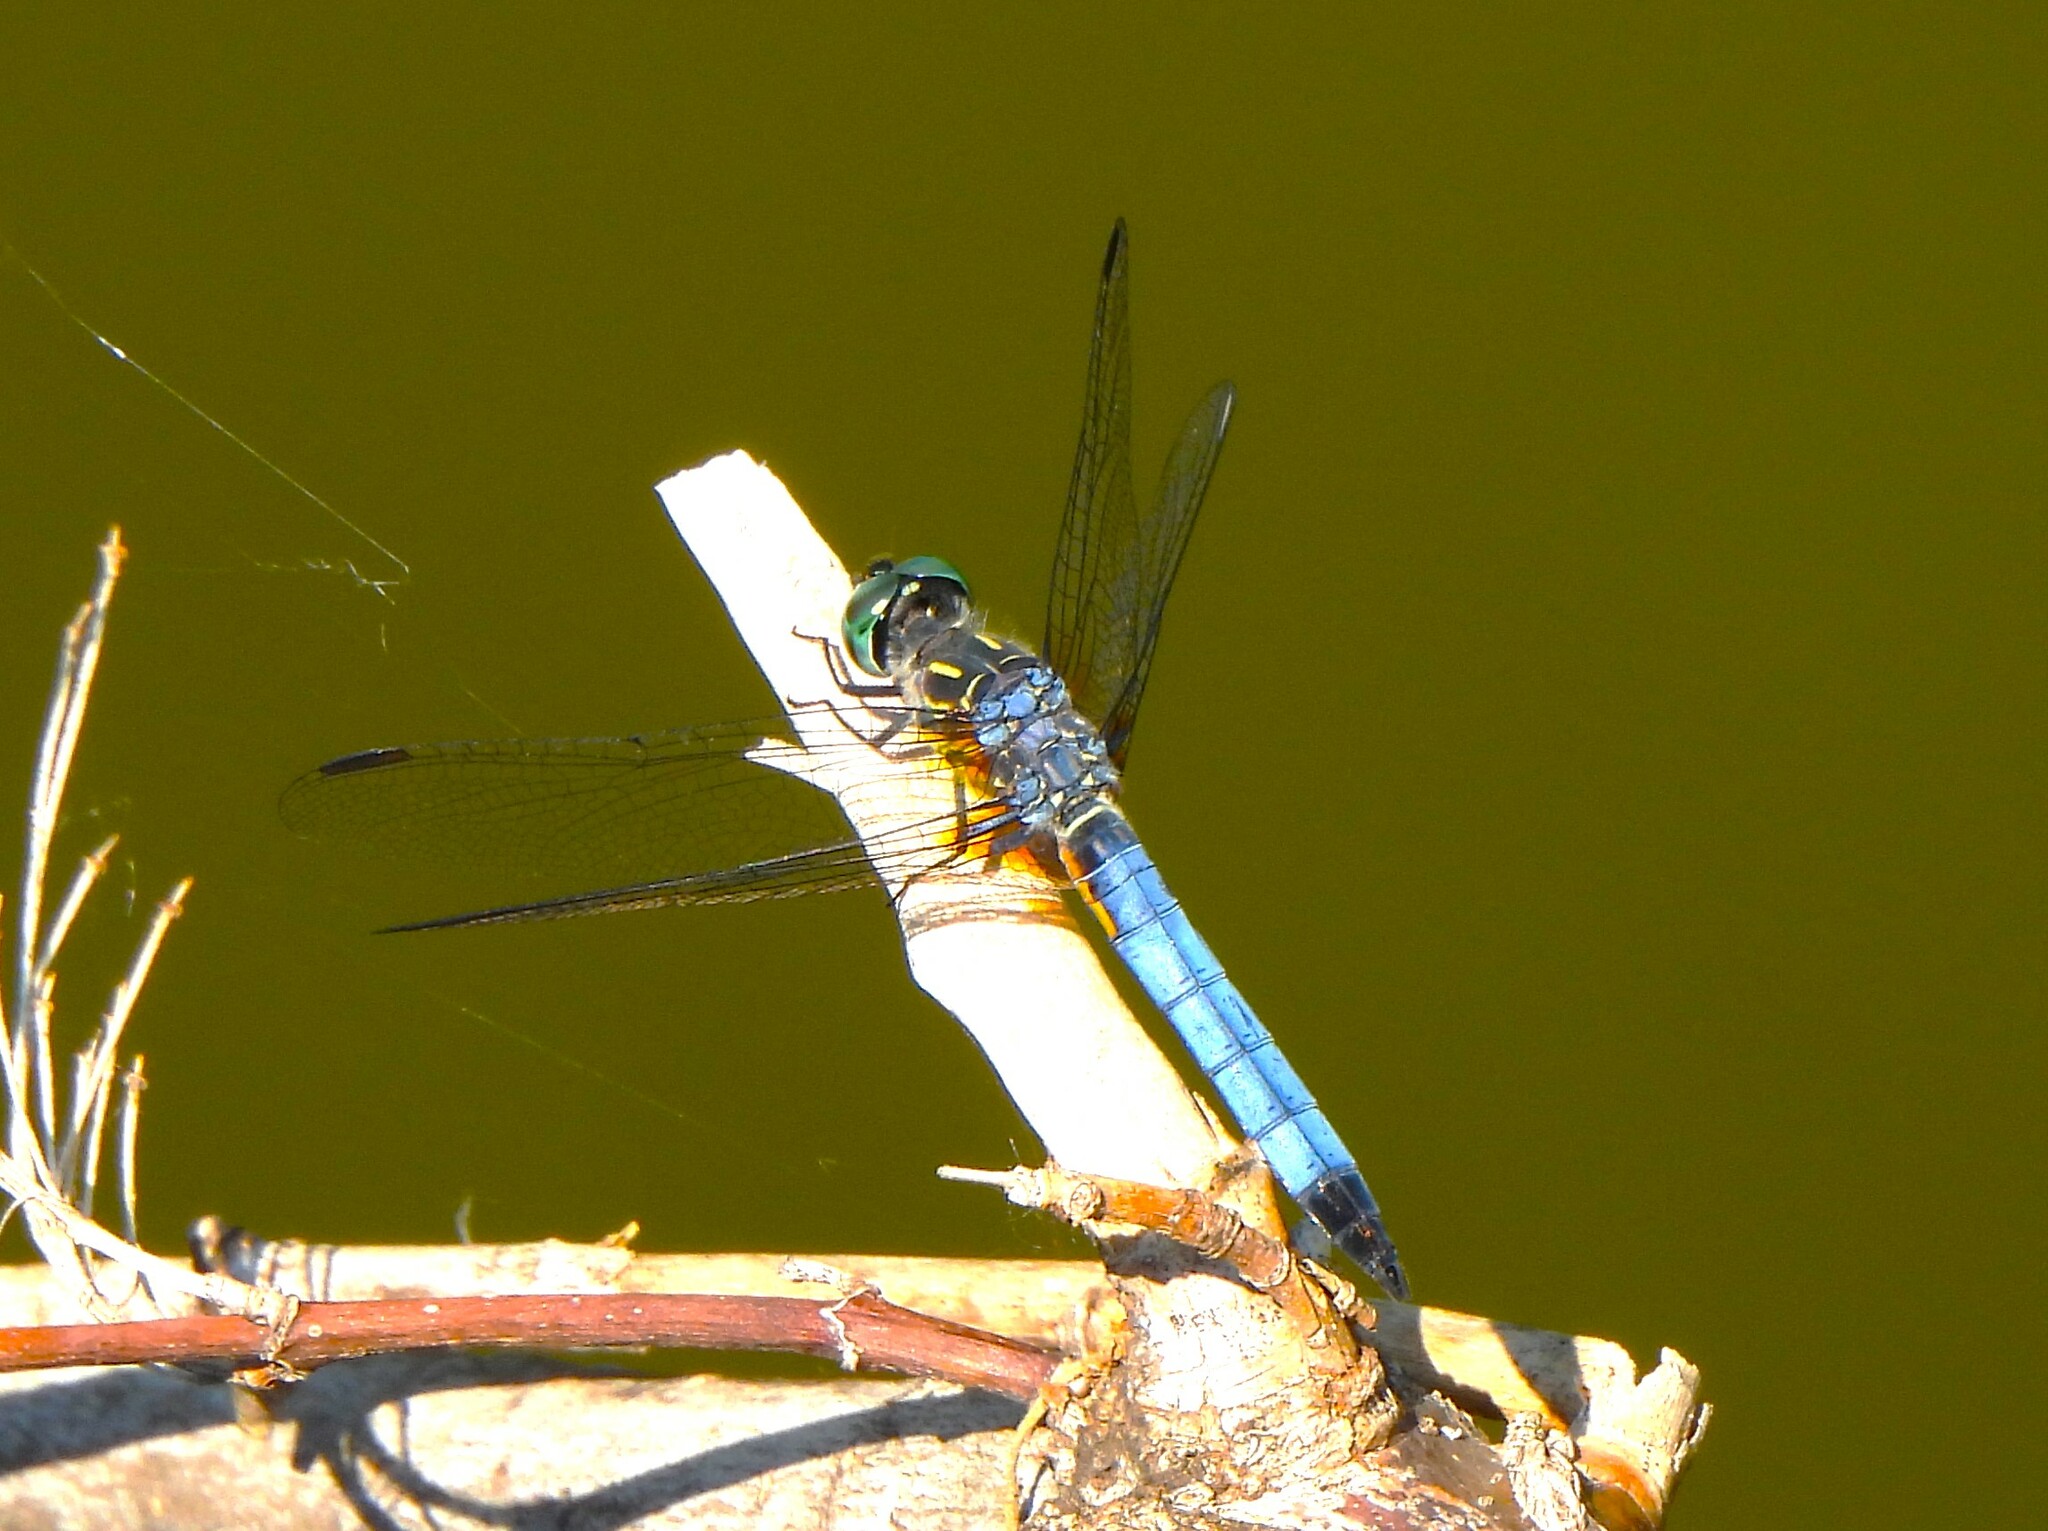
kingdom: Animalia
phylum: Arthropoda
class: Insecta
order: Odonata
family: Libellulidae
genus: Pachydiplax
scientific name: Pachydiplax longipennis
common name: Blue dasher
